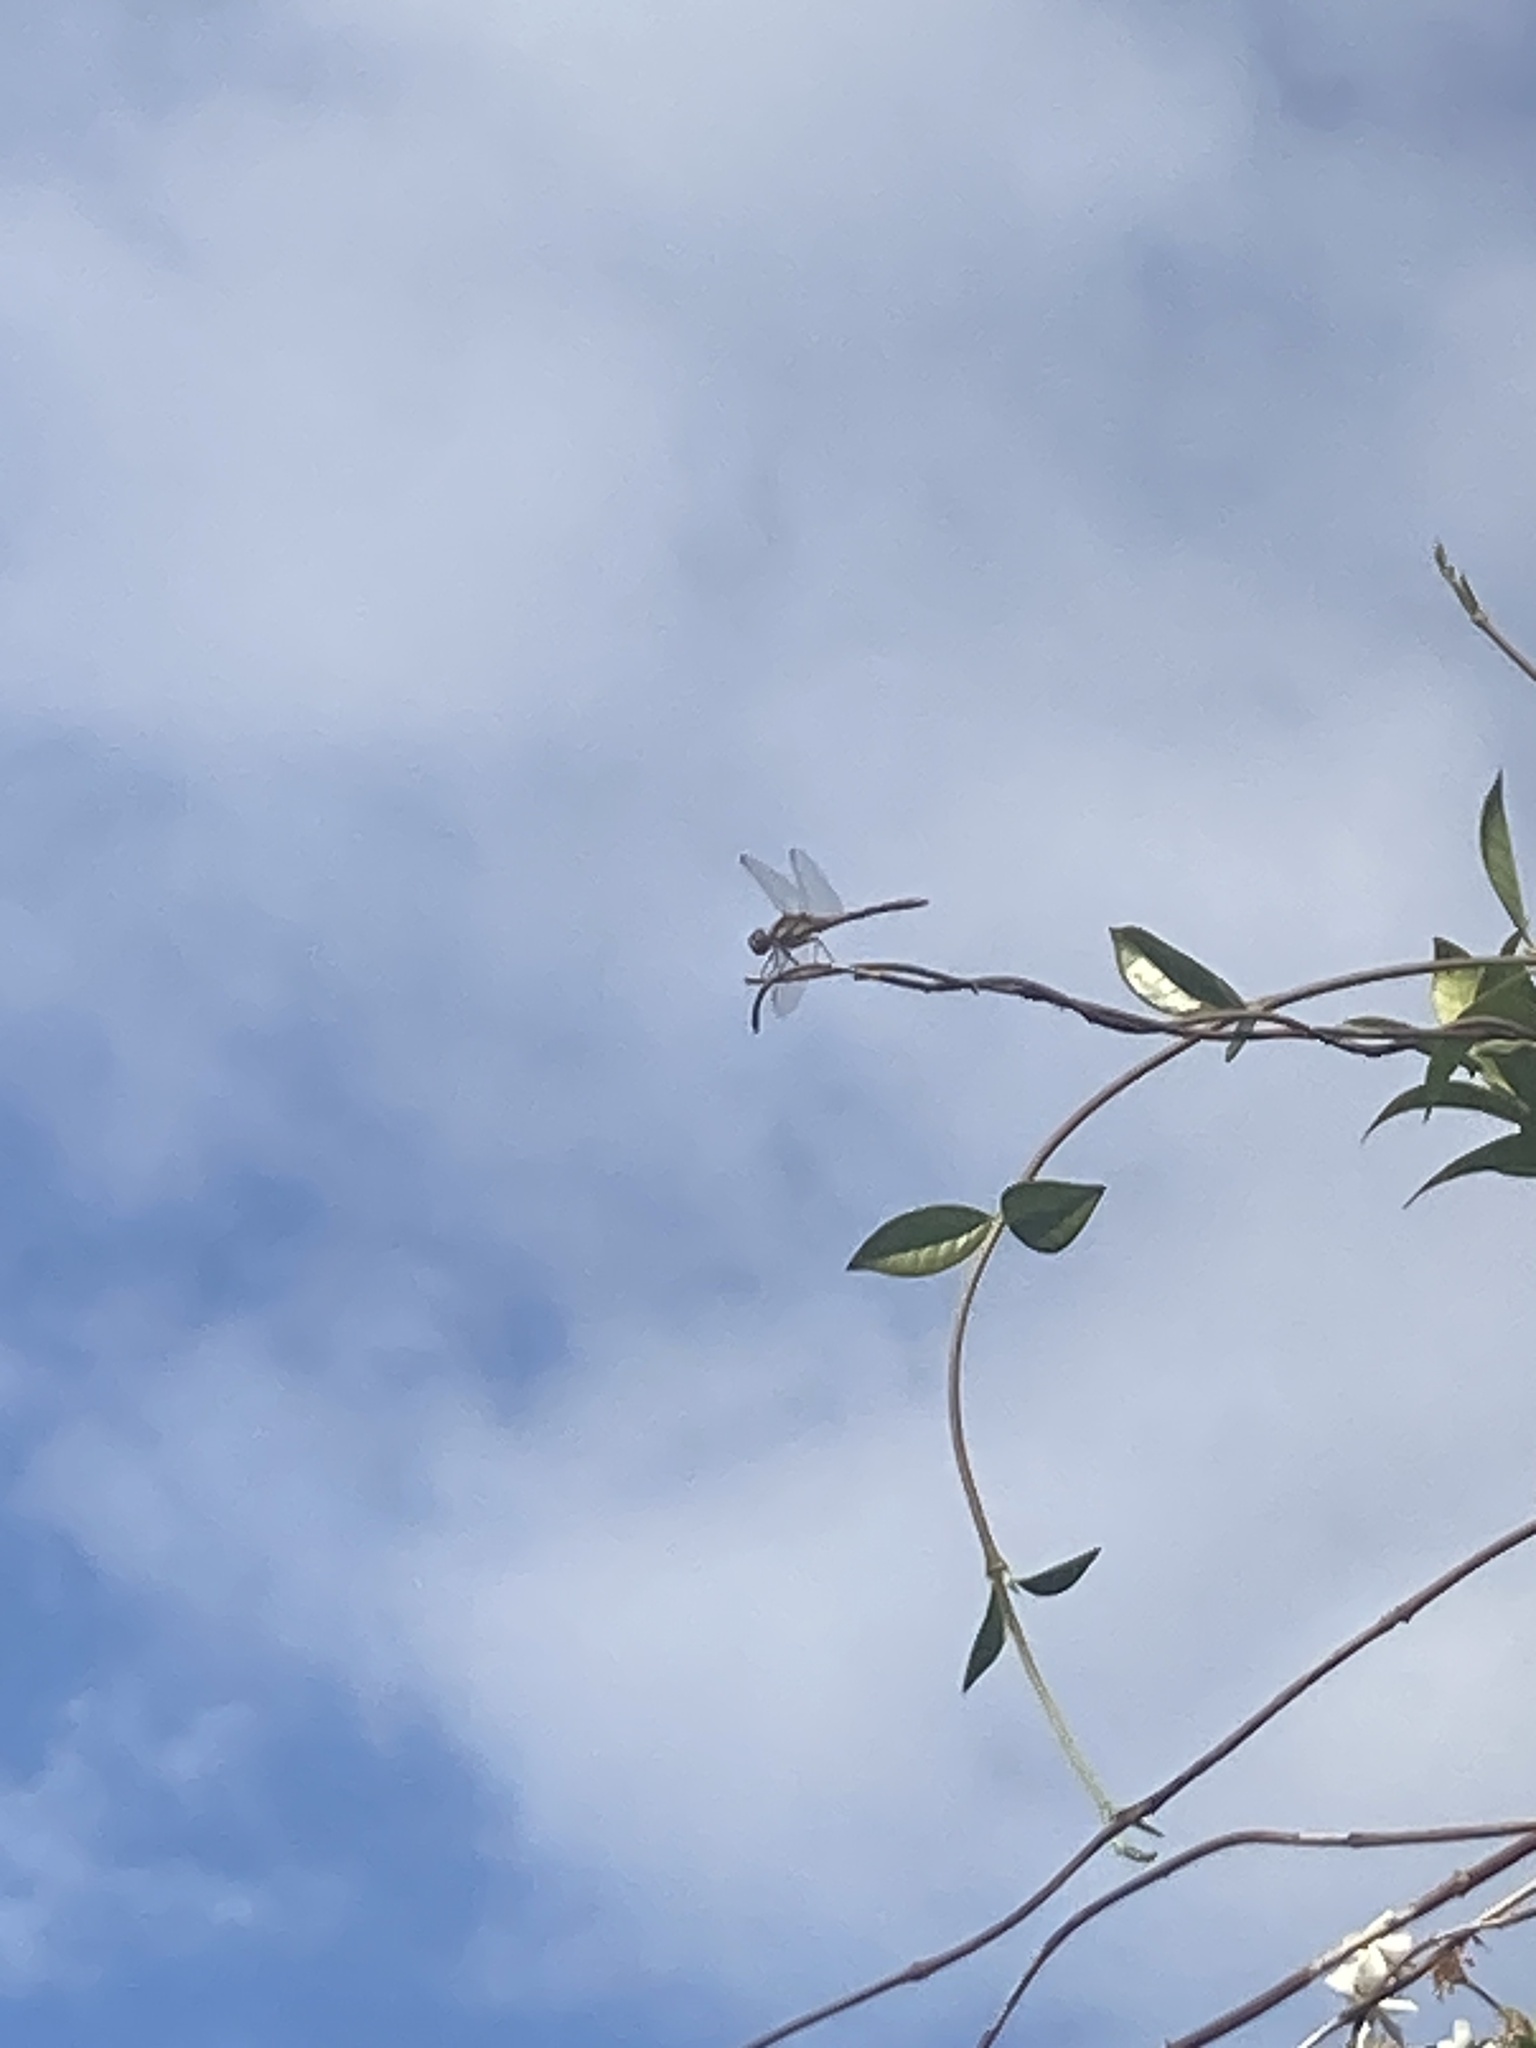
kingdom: Animalia
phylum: Arthropoda
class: Insecta
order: Odonata
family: Libellulidae
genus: Sympetrum
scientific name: Sympetrum striolatum
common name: Common darter
